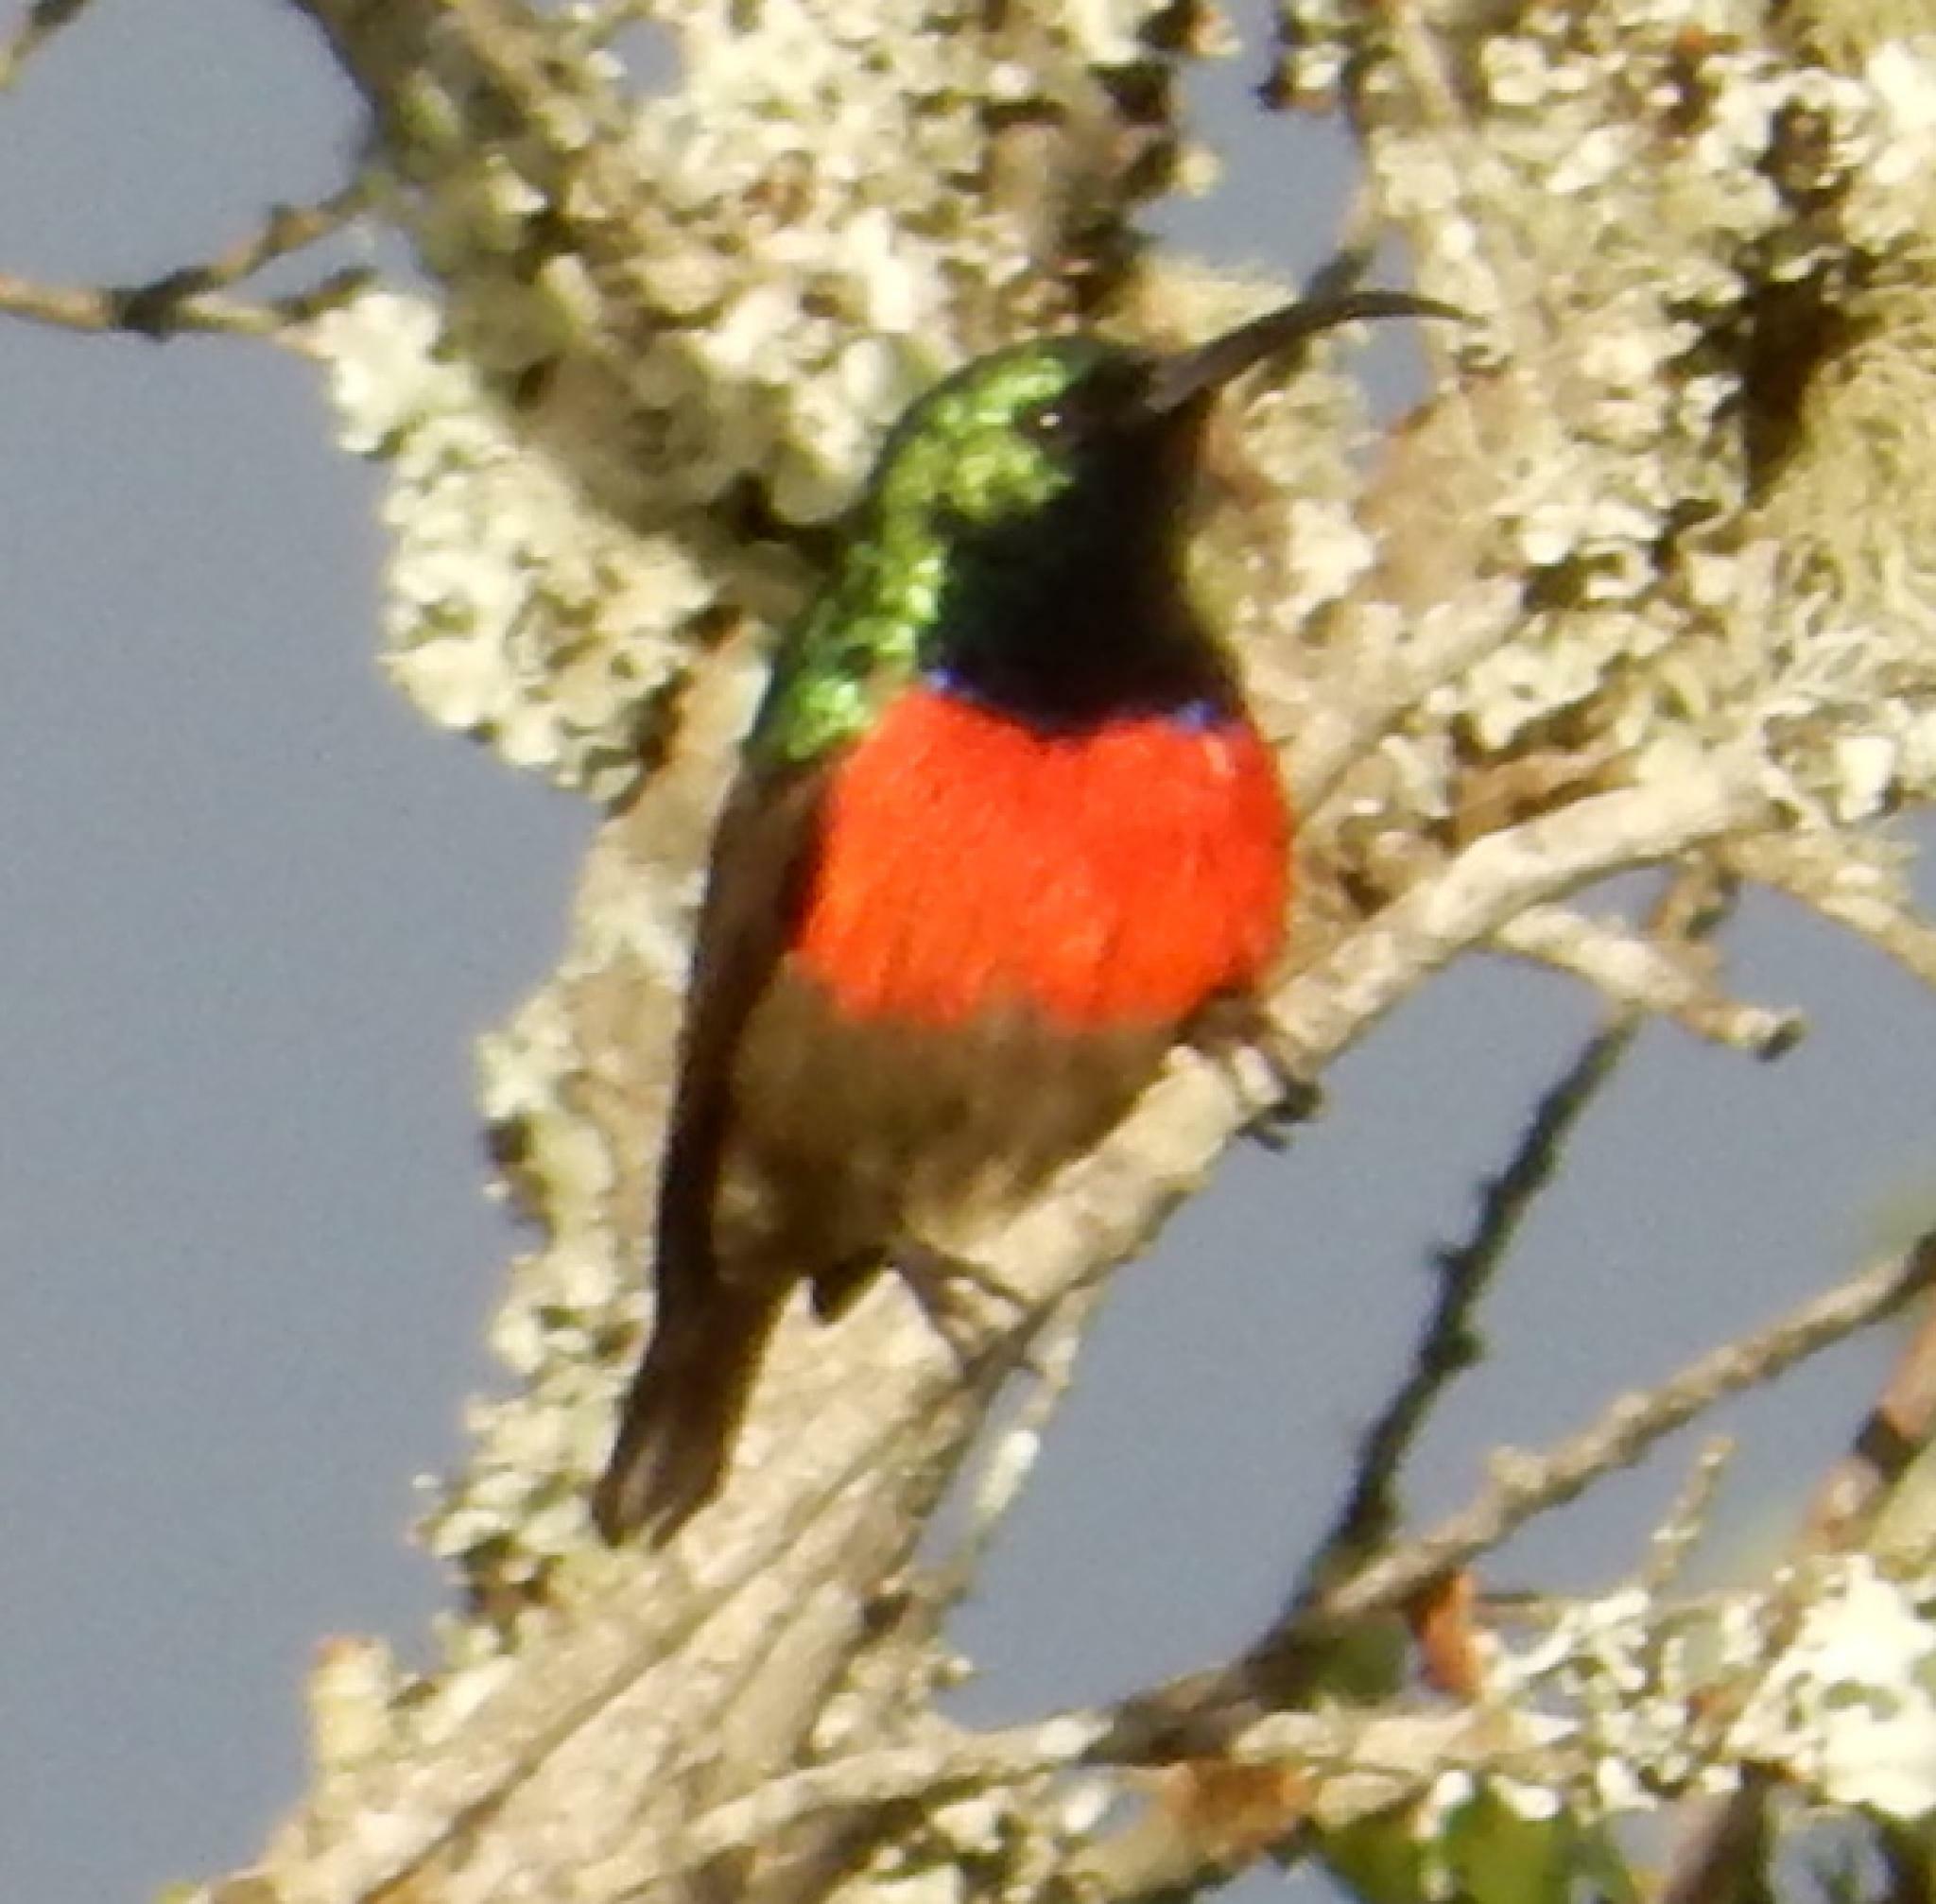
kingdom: Animalia
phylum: Chordata
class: Aves
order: Passeriformes
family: Nectariniidae
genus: Cinnyris
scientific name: Cinnyris afer
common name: Greater double-collared sunbird
